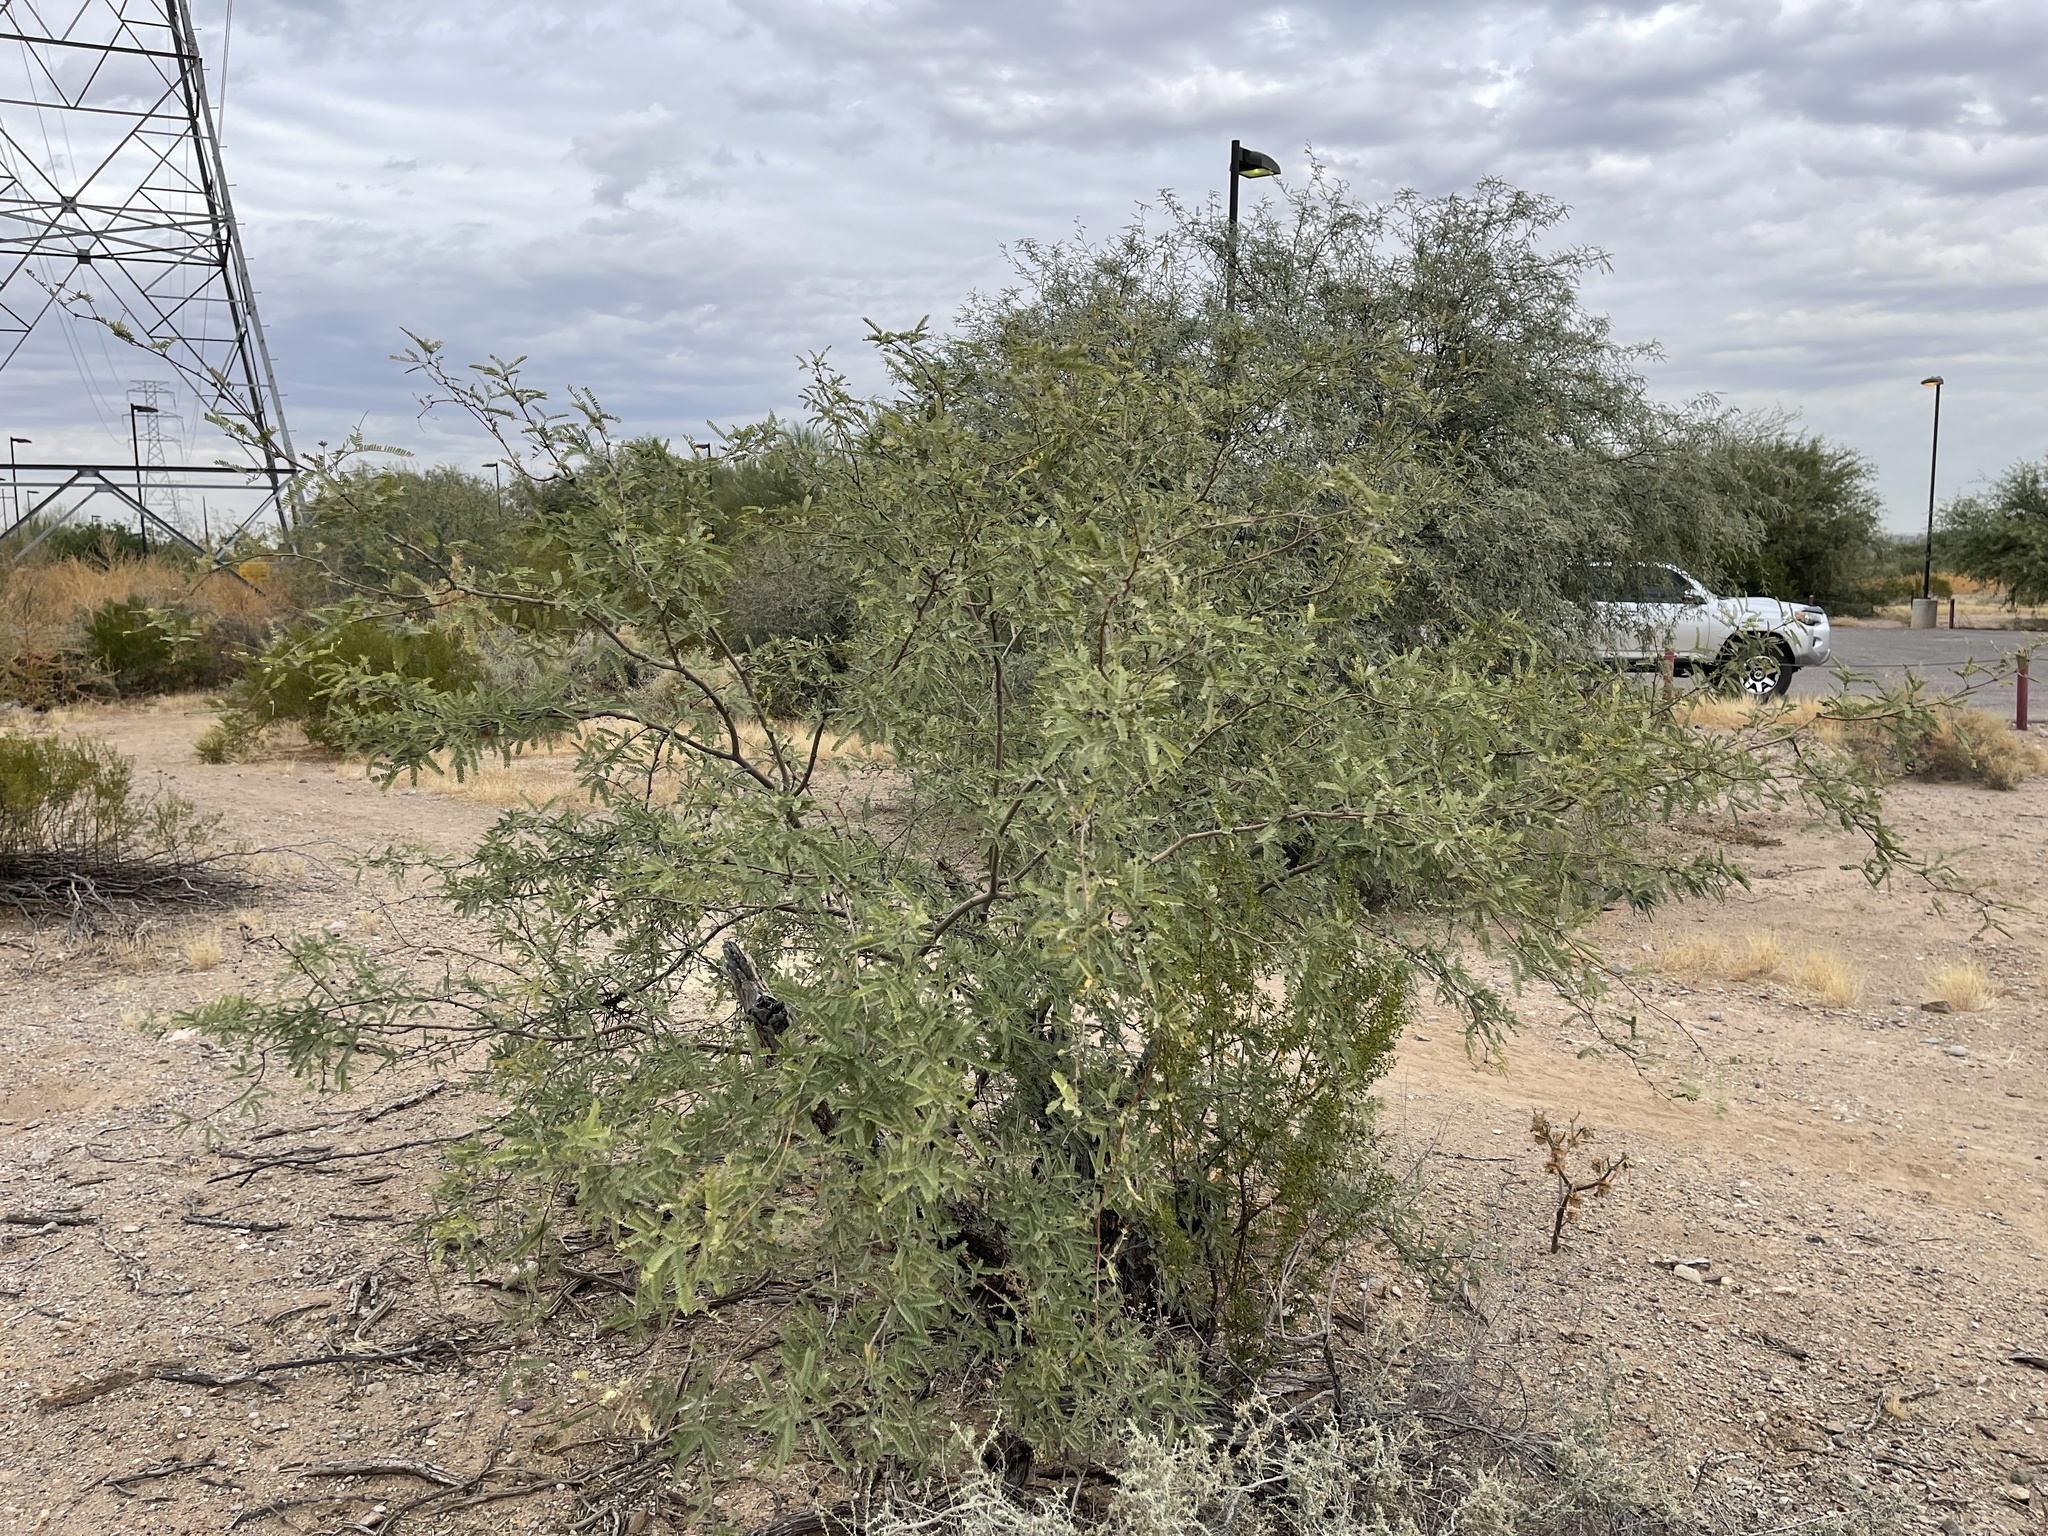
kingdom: Plantae
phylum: Tracheophyta
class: Magnoliopsida
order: Fabales
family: Fabaceae
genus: Prosopis
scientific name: Prosopis velutina
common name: Velvet mesquite
